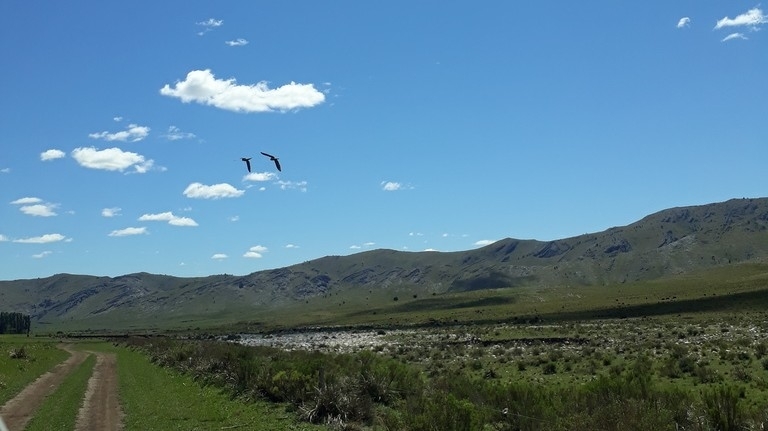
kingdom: Animalia
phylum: Chordata
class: Aves
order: Psittaciformes
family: Psittacidae
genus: Cyanoliseus
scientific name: Cyanoliseus patagonus
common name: Burrowing parrot
